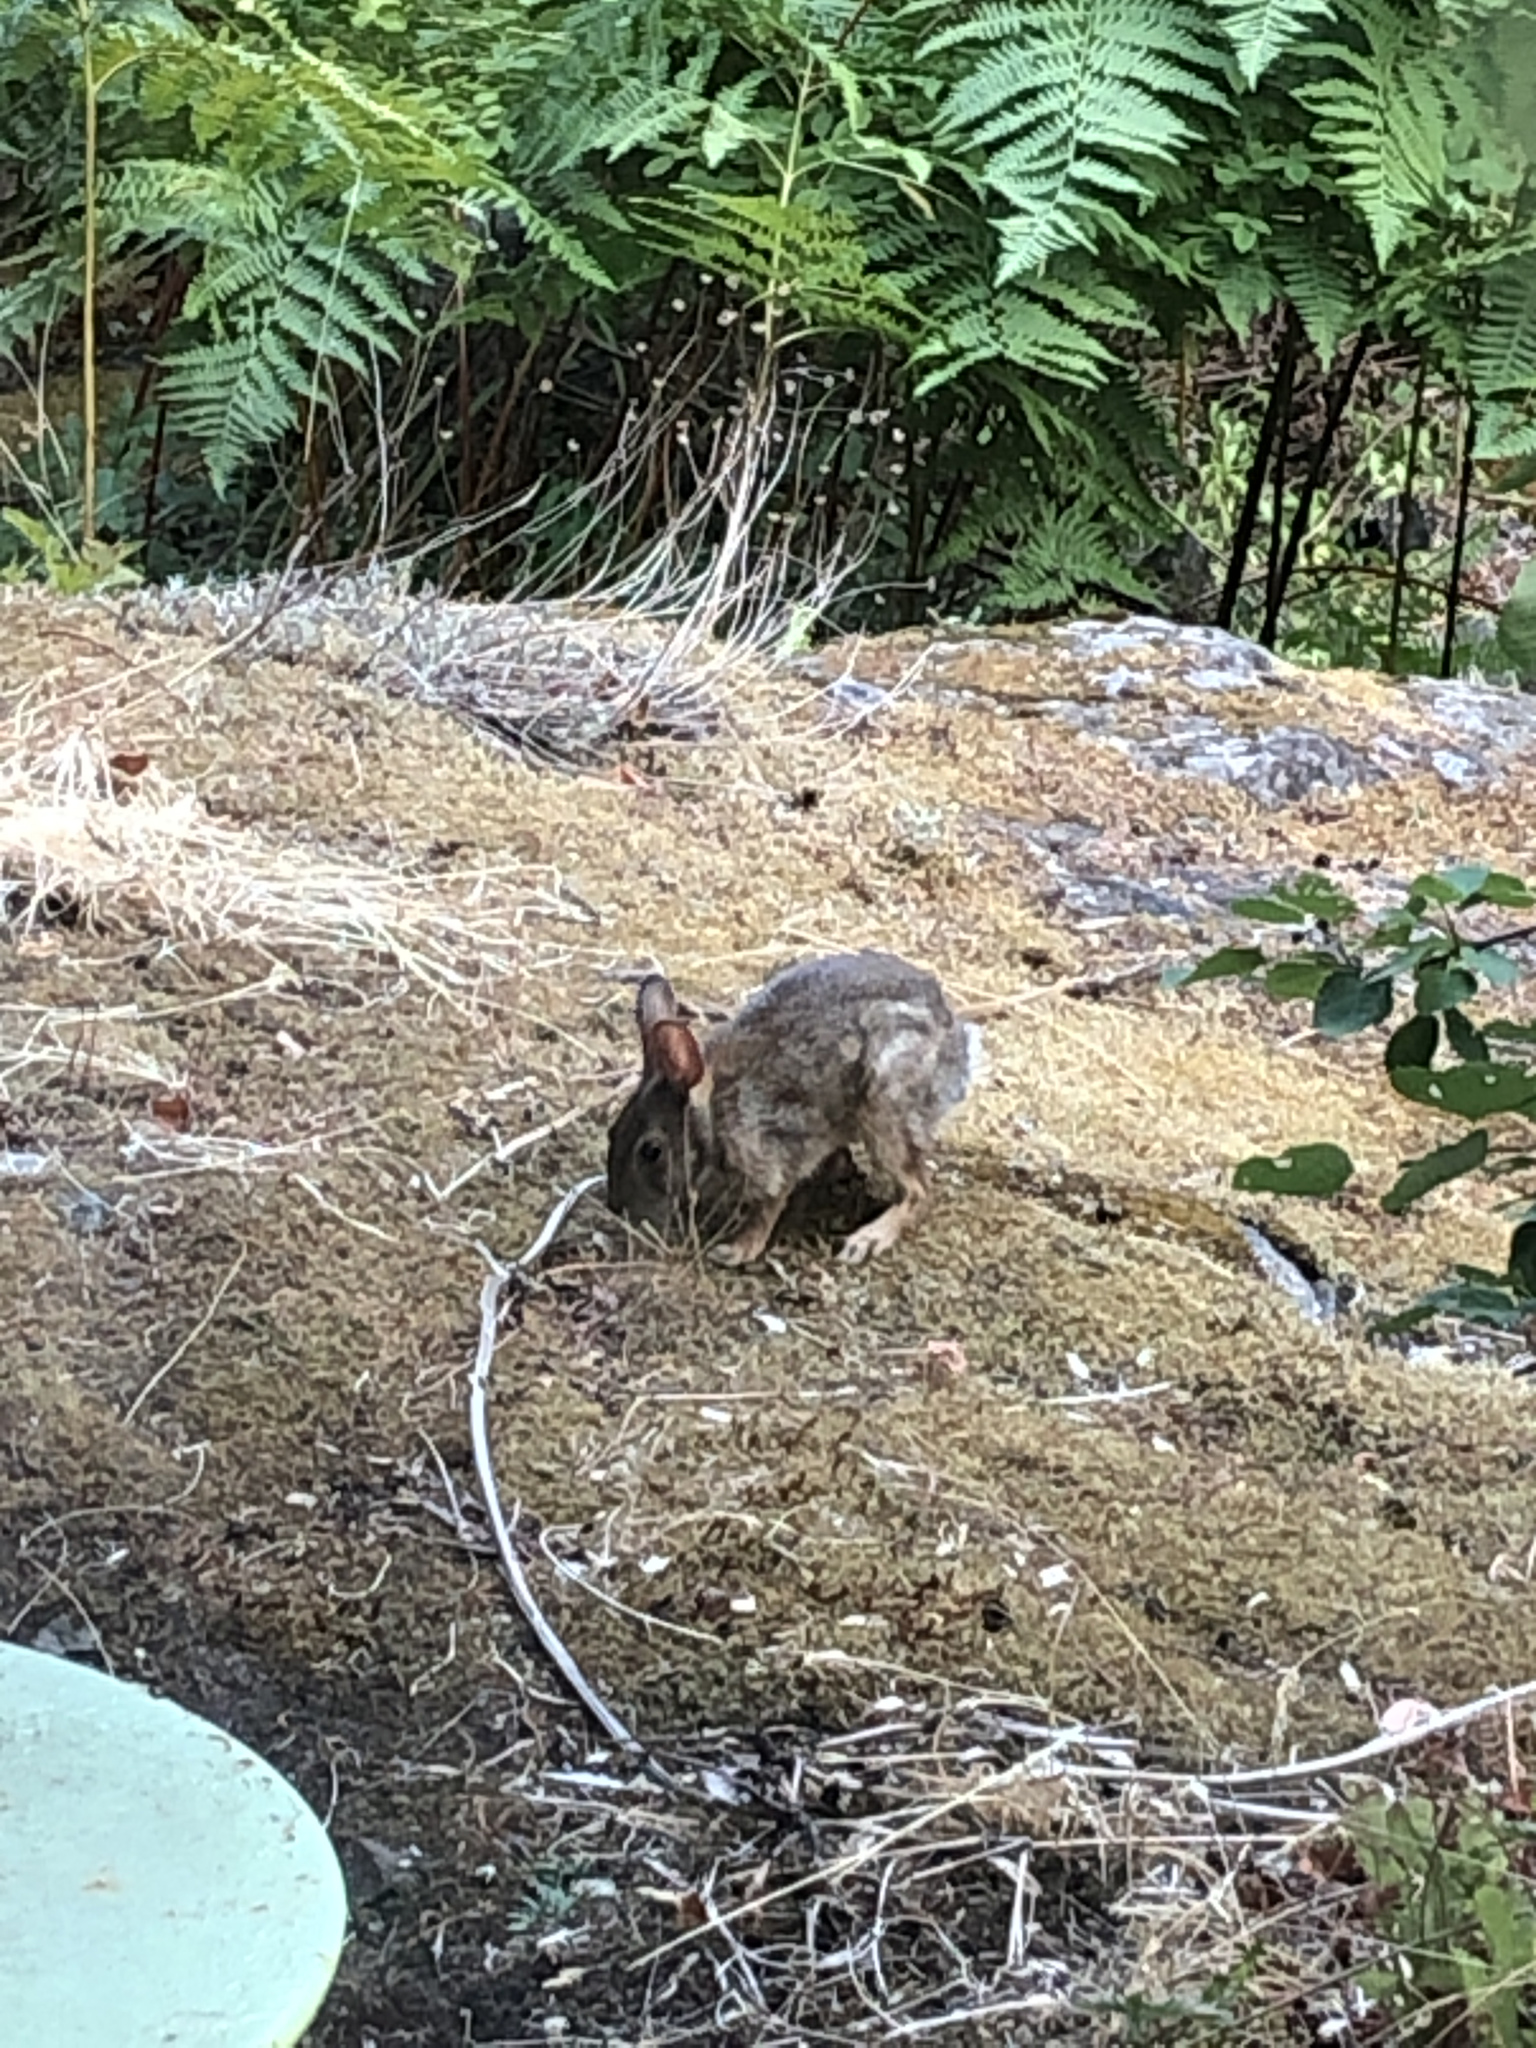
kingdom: Animalia
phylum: Chordata
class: Mammalia
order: Lagomorpha
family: Leporidae
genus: Sylvilagus
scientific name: Sylvilagus floridanus
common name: Eastern cottontail
